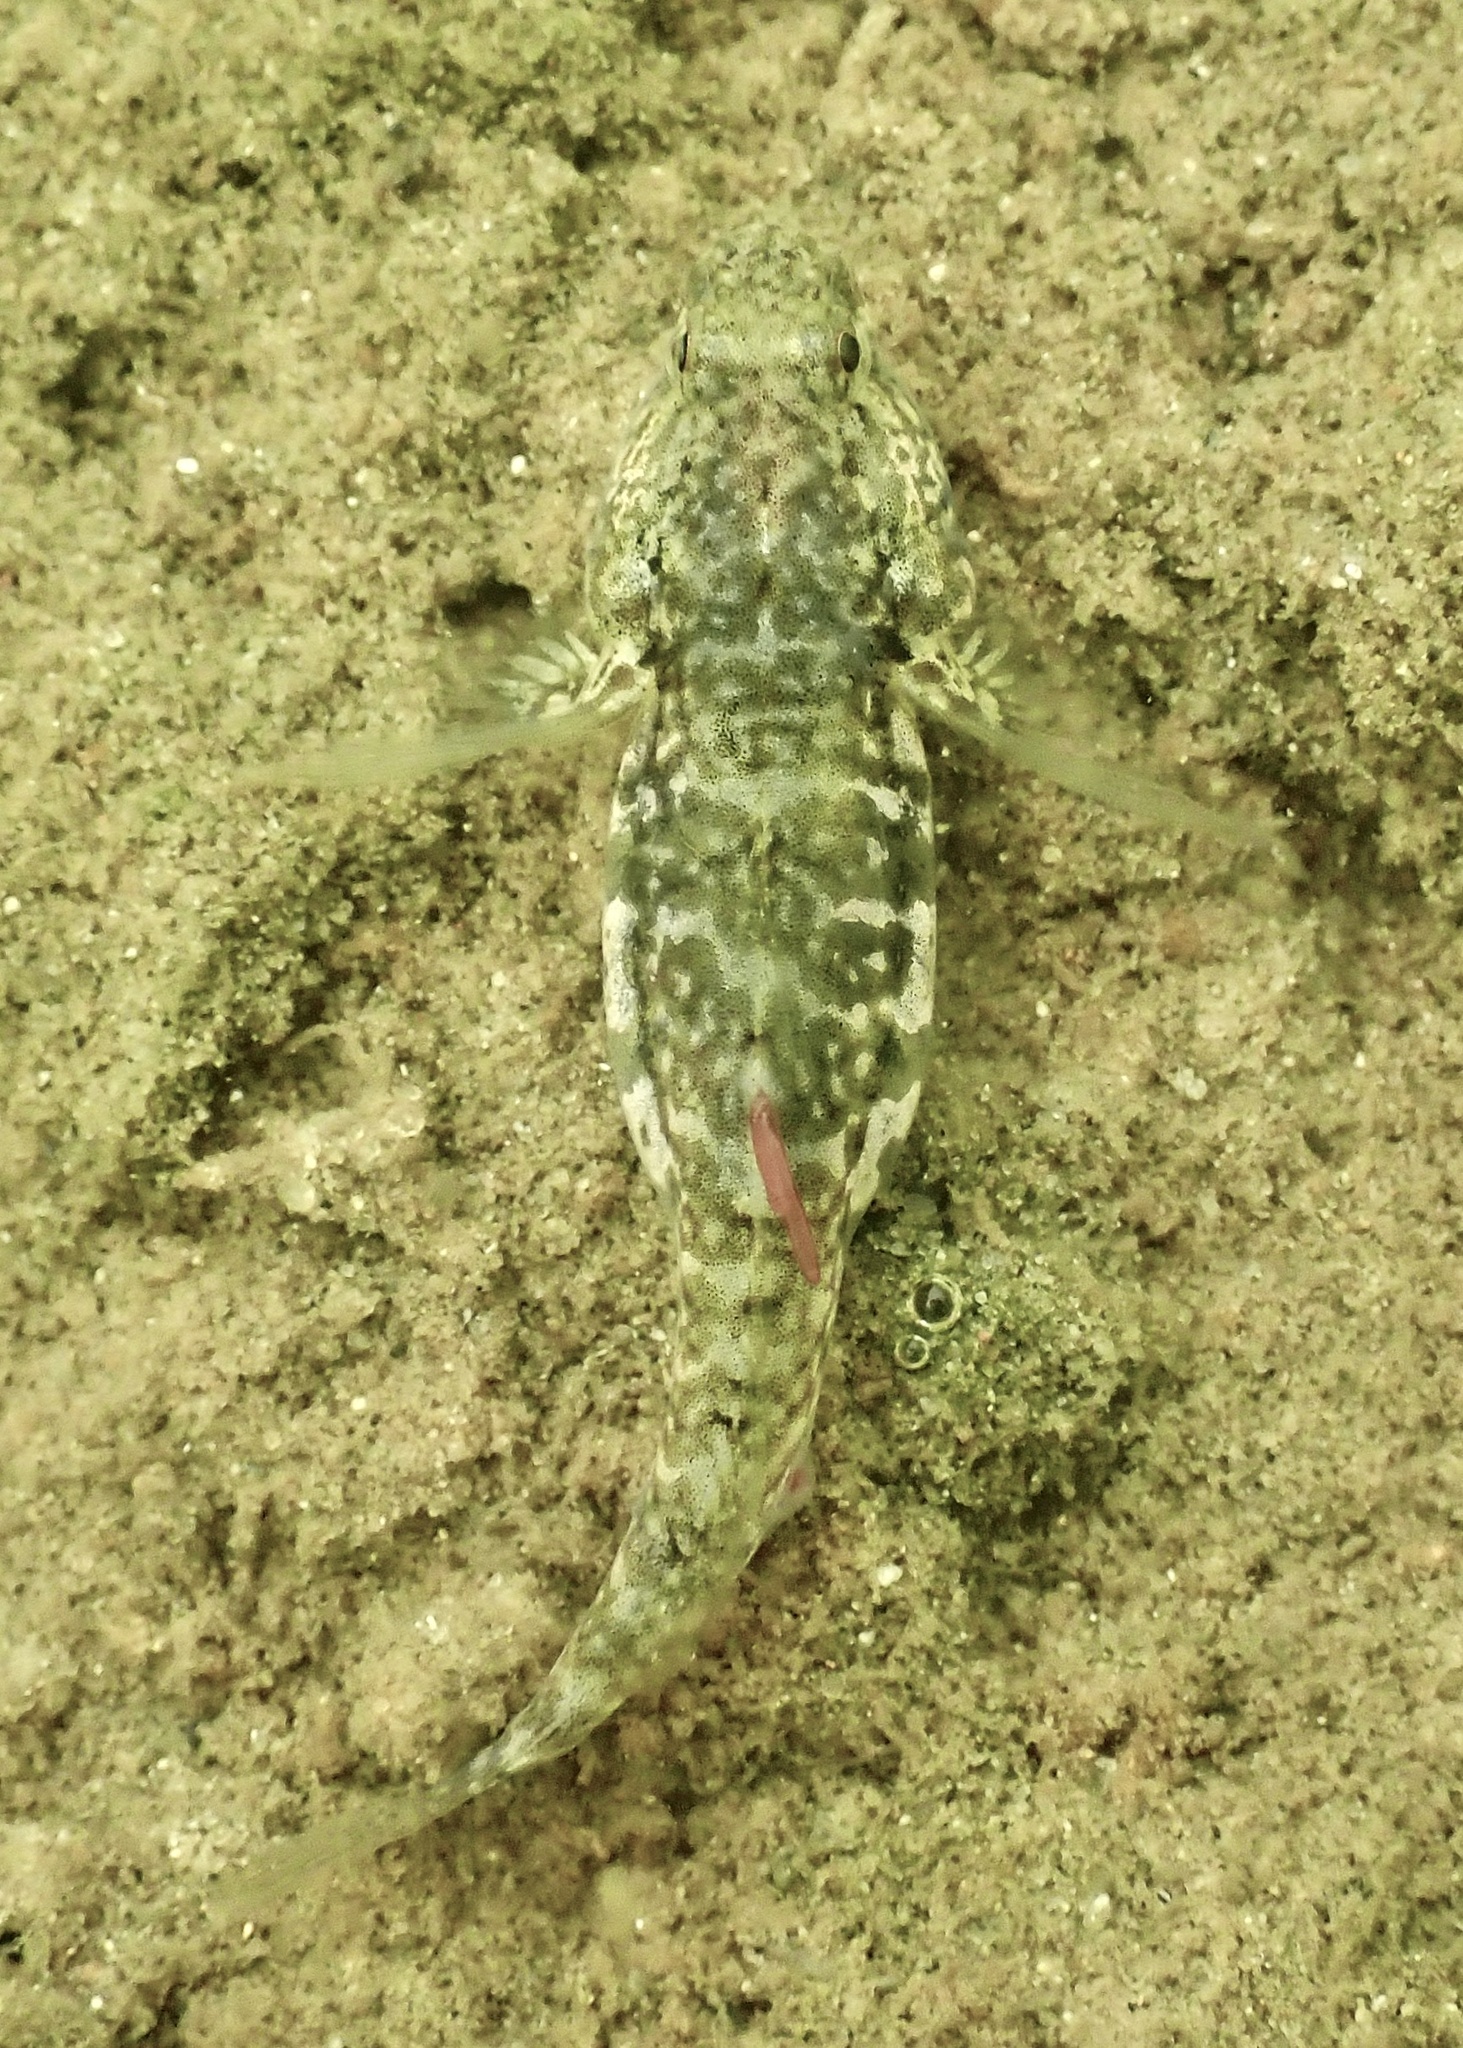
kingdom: Animalia
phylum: Chordata
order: Perciformes
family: Gobiidae
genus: Gobiosoma
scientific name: Gobiosoma ginsburgi
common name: Seaboard goby
